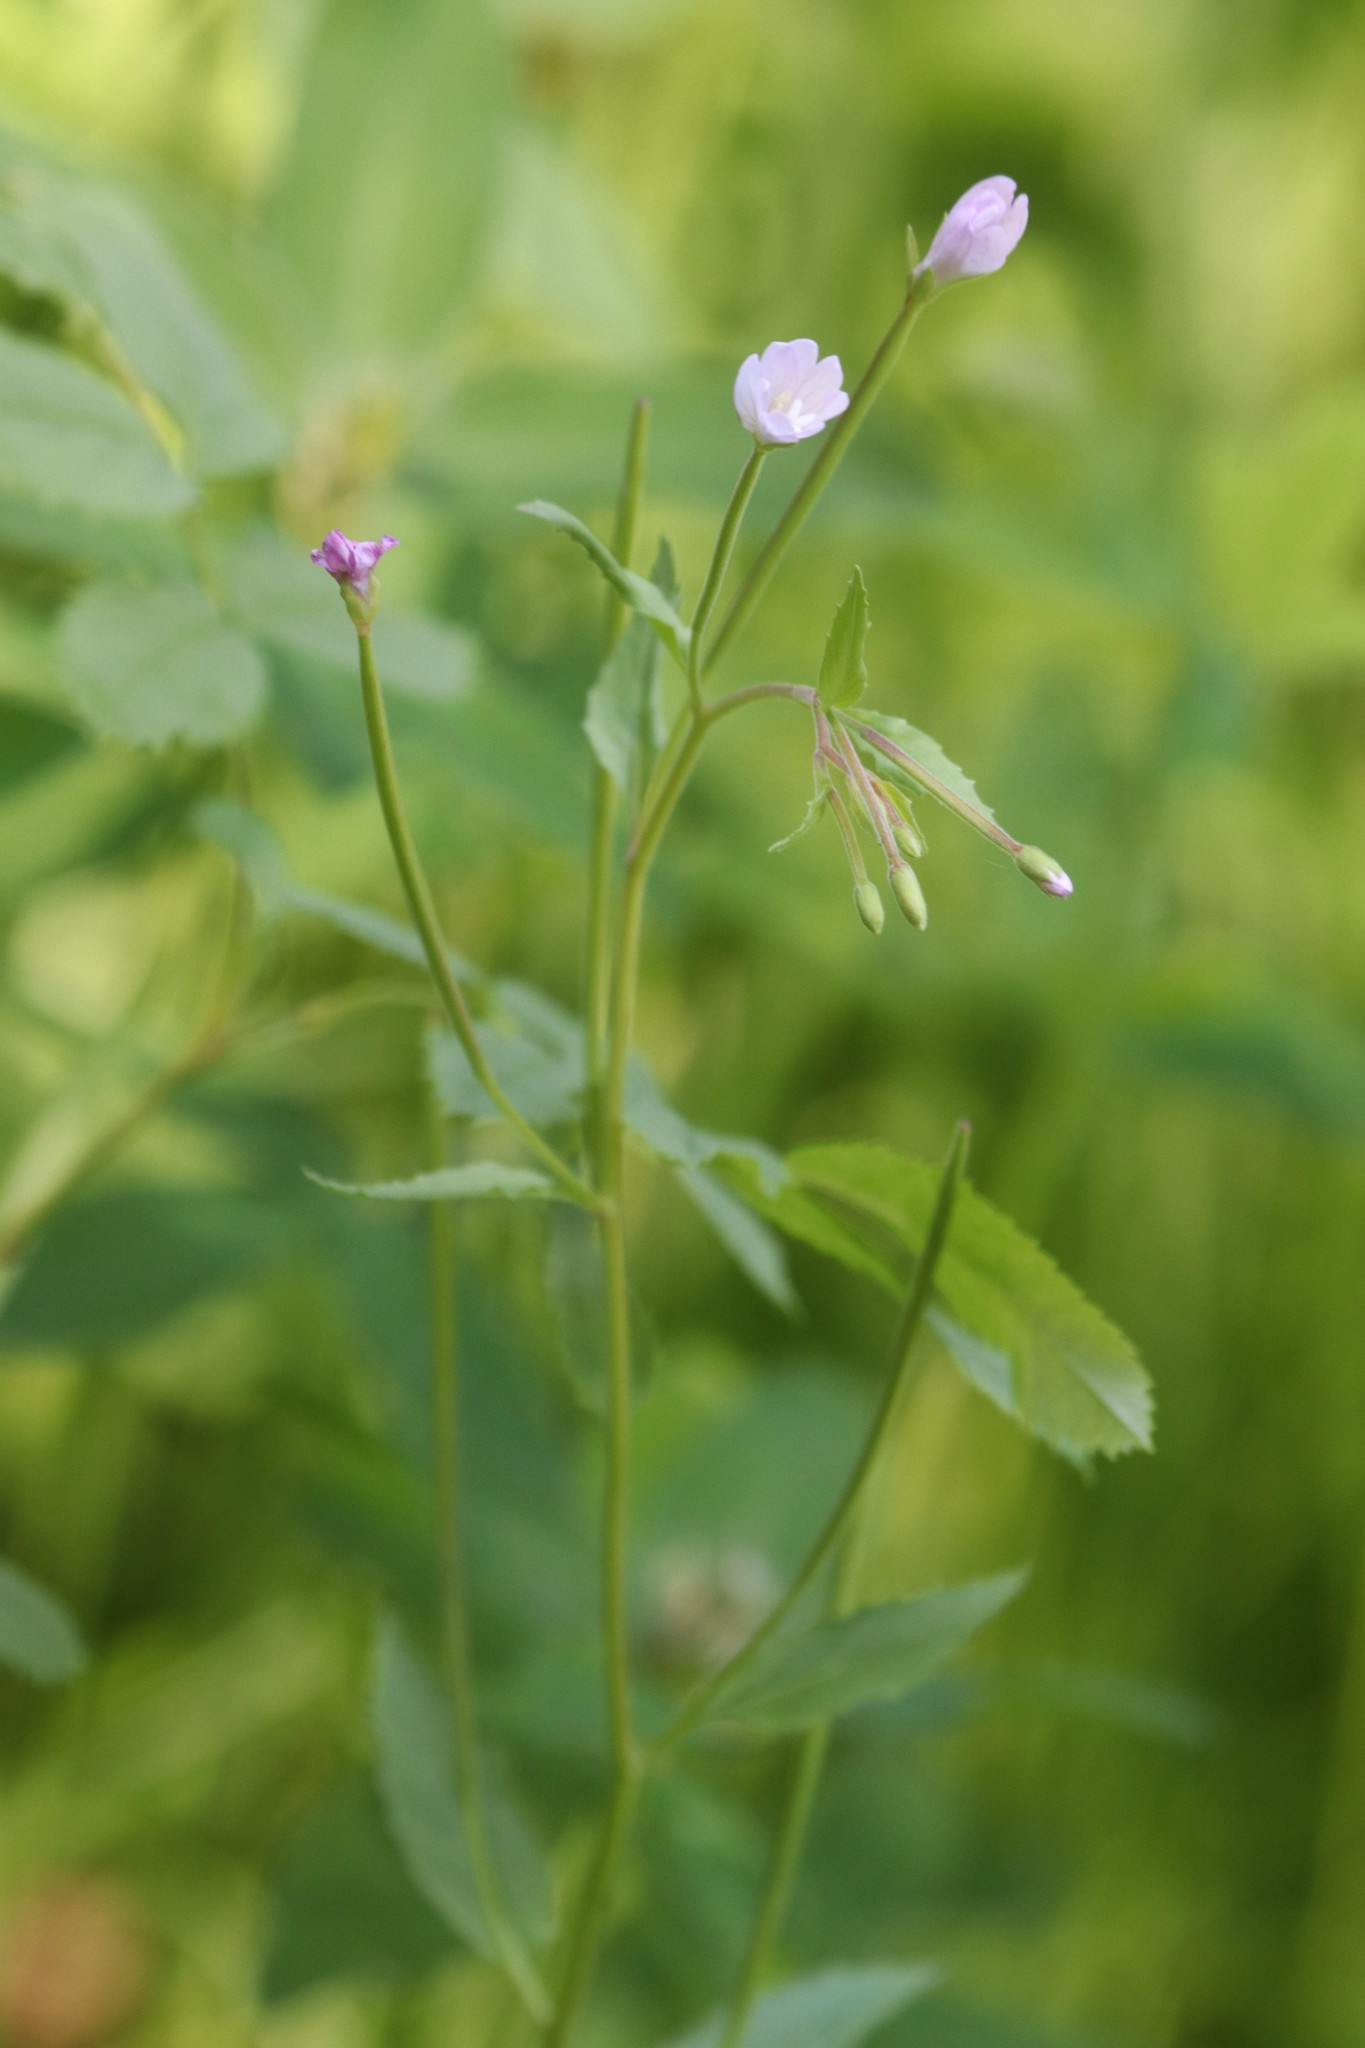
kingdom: Plantae
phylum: Tracheophyta
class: Magnoliopsida
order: Myrtales
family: Onagraceae
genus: Epilobium
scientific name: Epilobium montanum
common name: Broad-leaved willowherb
